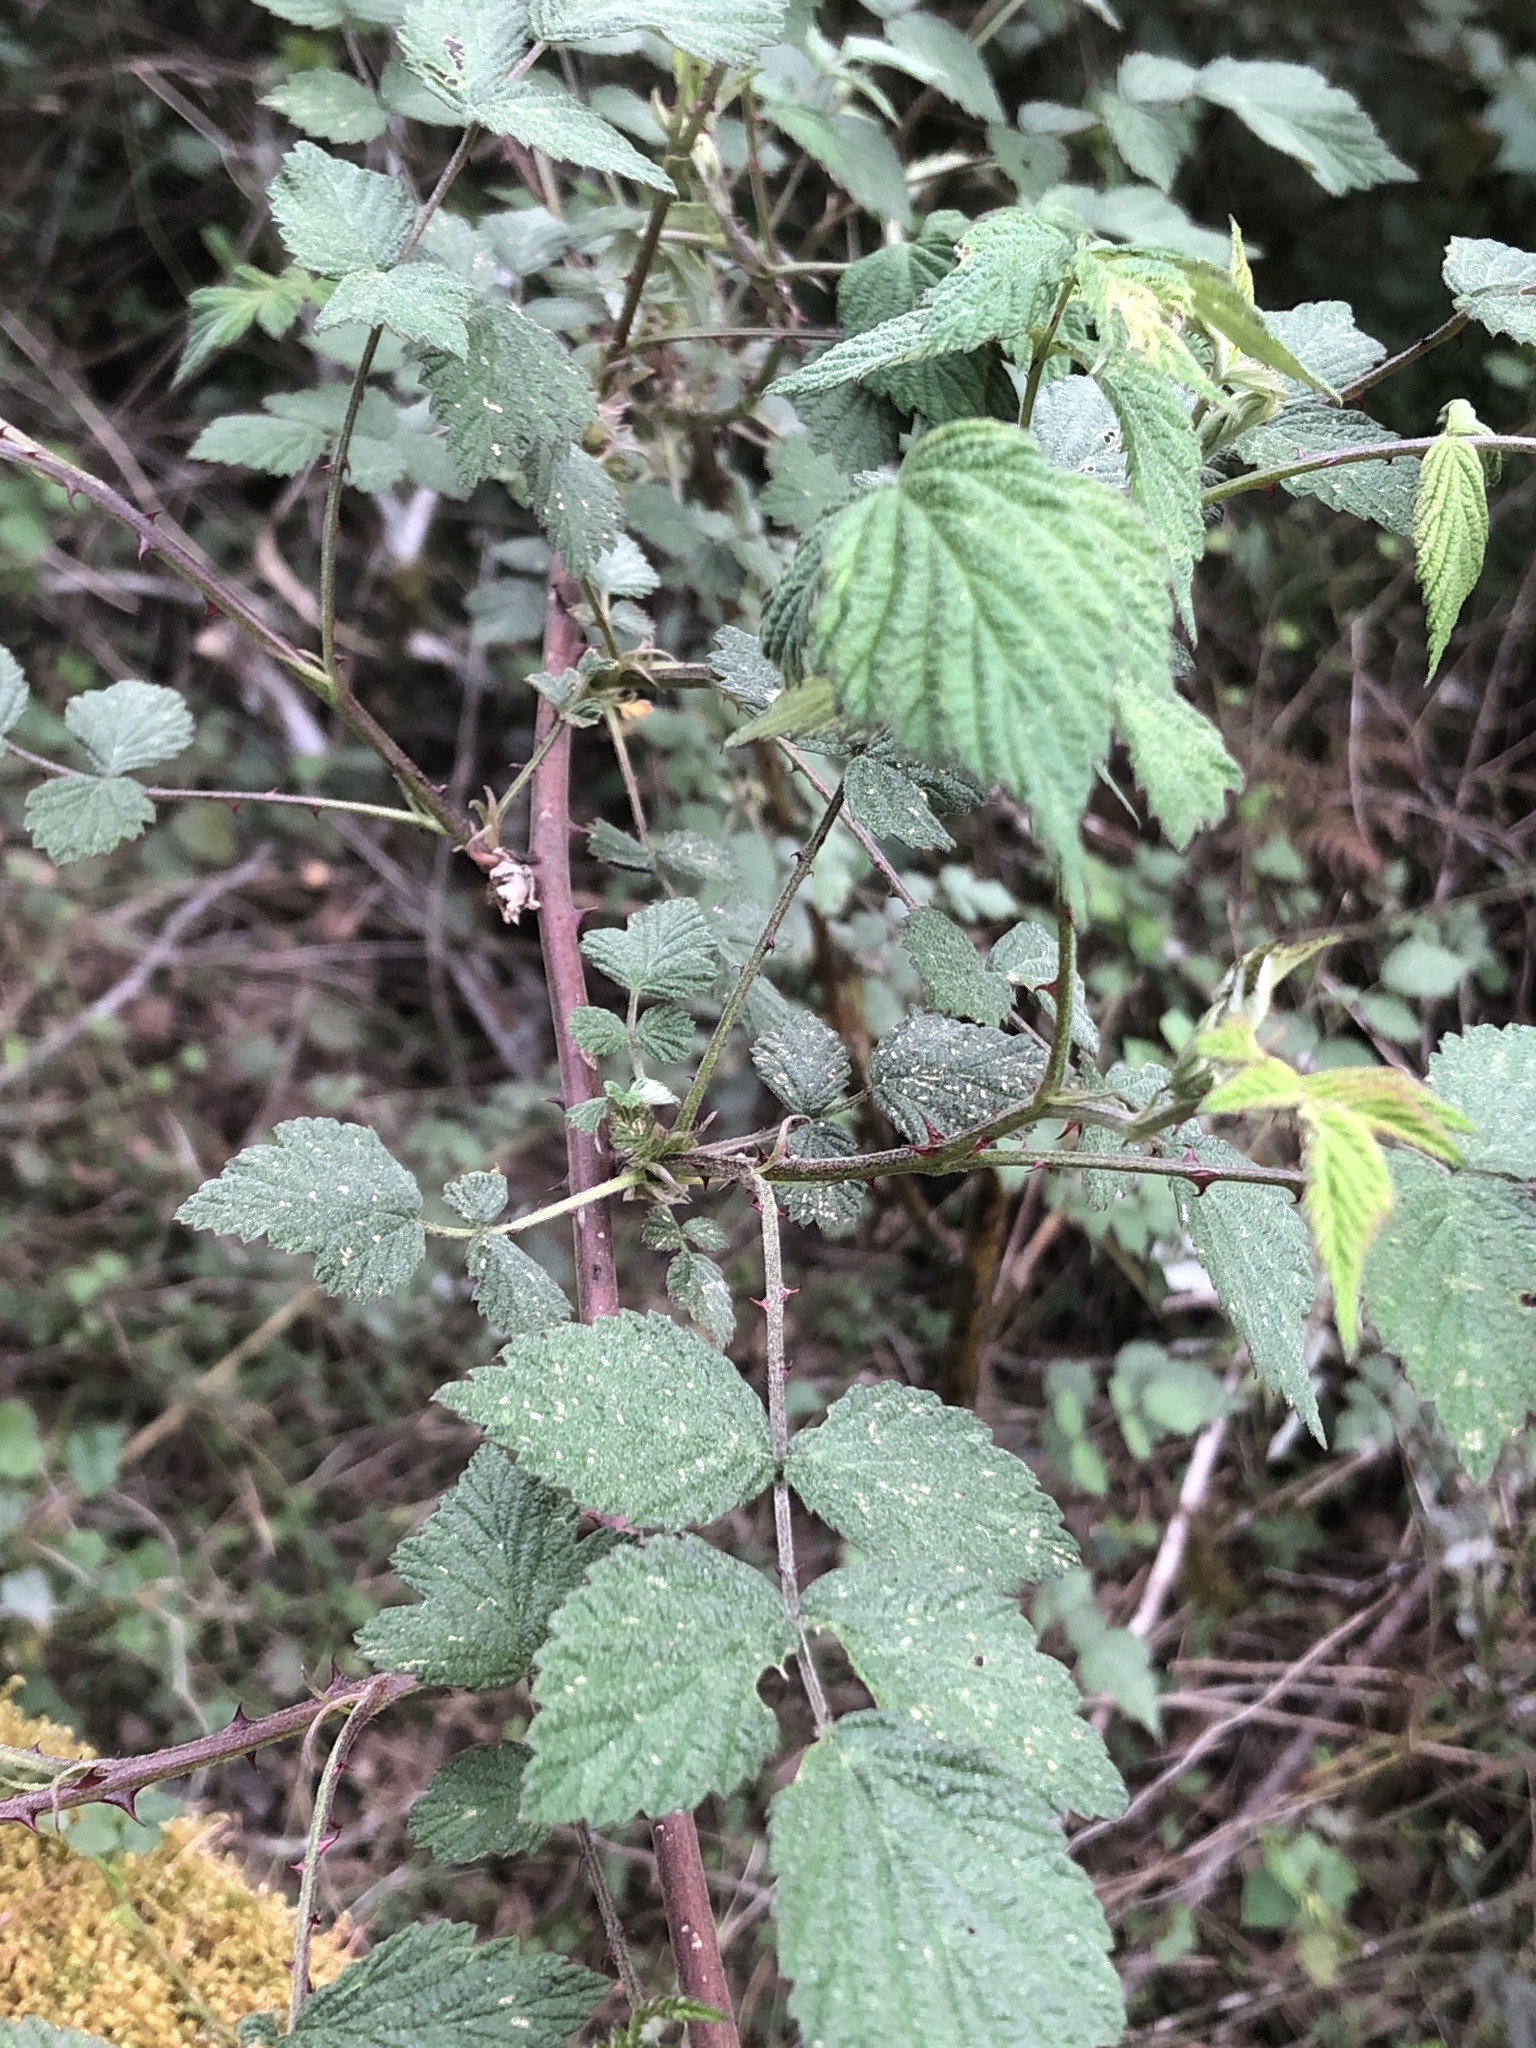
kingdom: Plantae
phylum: Tracheophyta
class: Magnoliopsida
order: Rosales
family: Rosaceae
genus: Rubus
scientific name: Rubus niveus
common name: Snowpeaks raspberry
